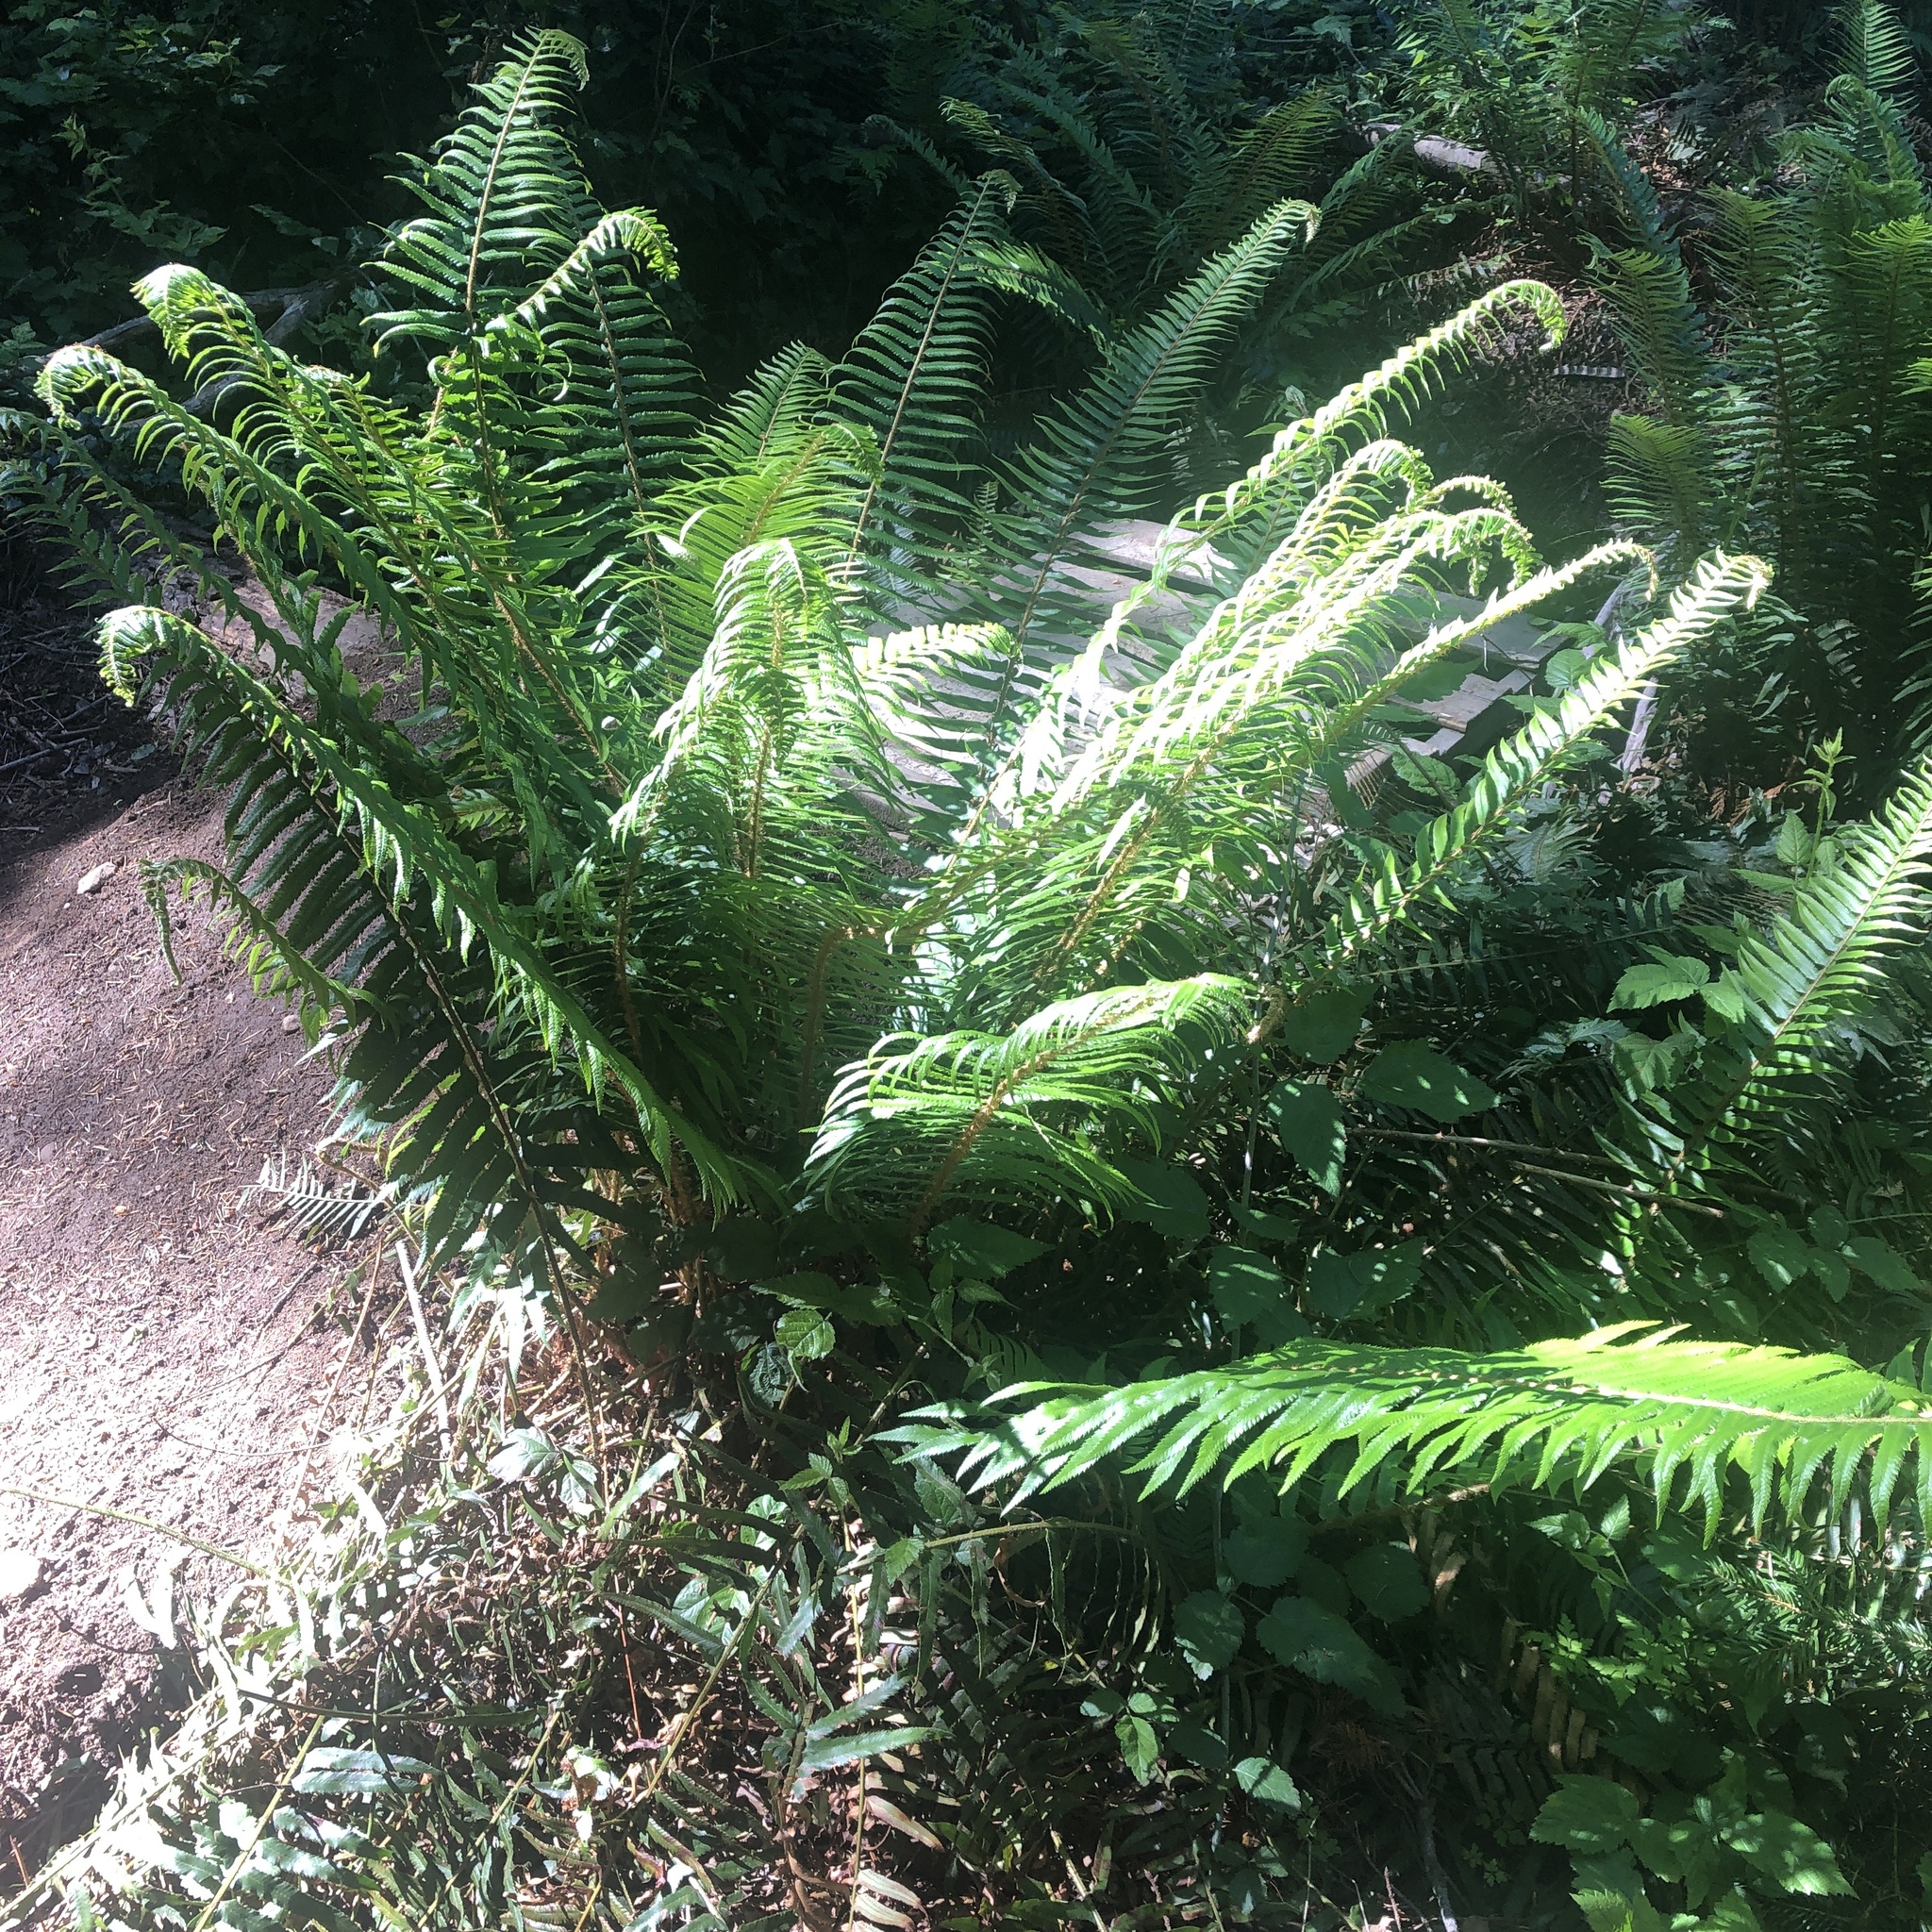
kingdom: Plantae
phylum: Tracheophyta
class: Polypodiopsida
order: Polypodiales
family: Dryopteridaceae
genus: Polystichum
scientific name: Polystichum munitum
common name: Western sword-fern
